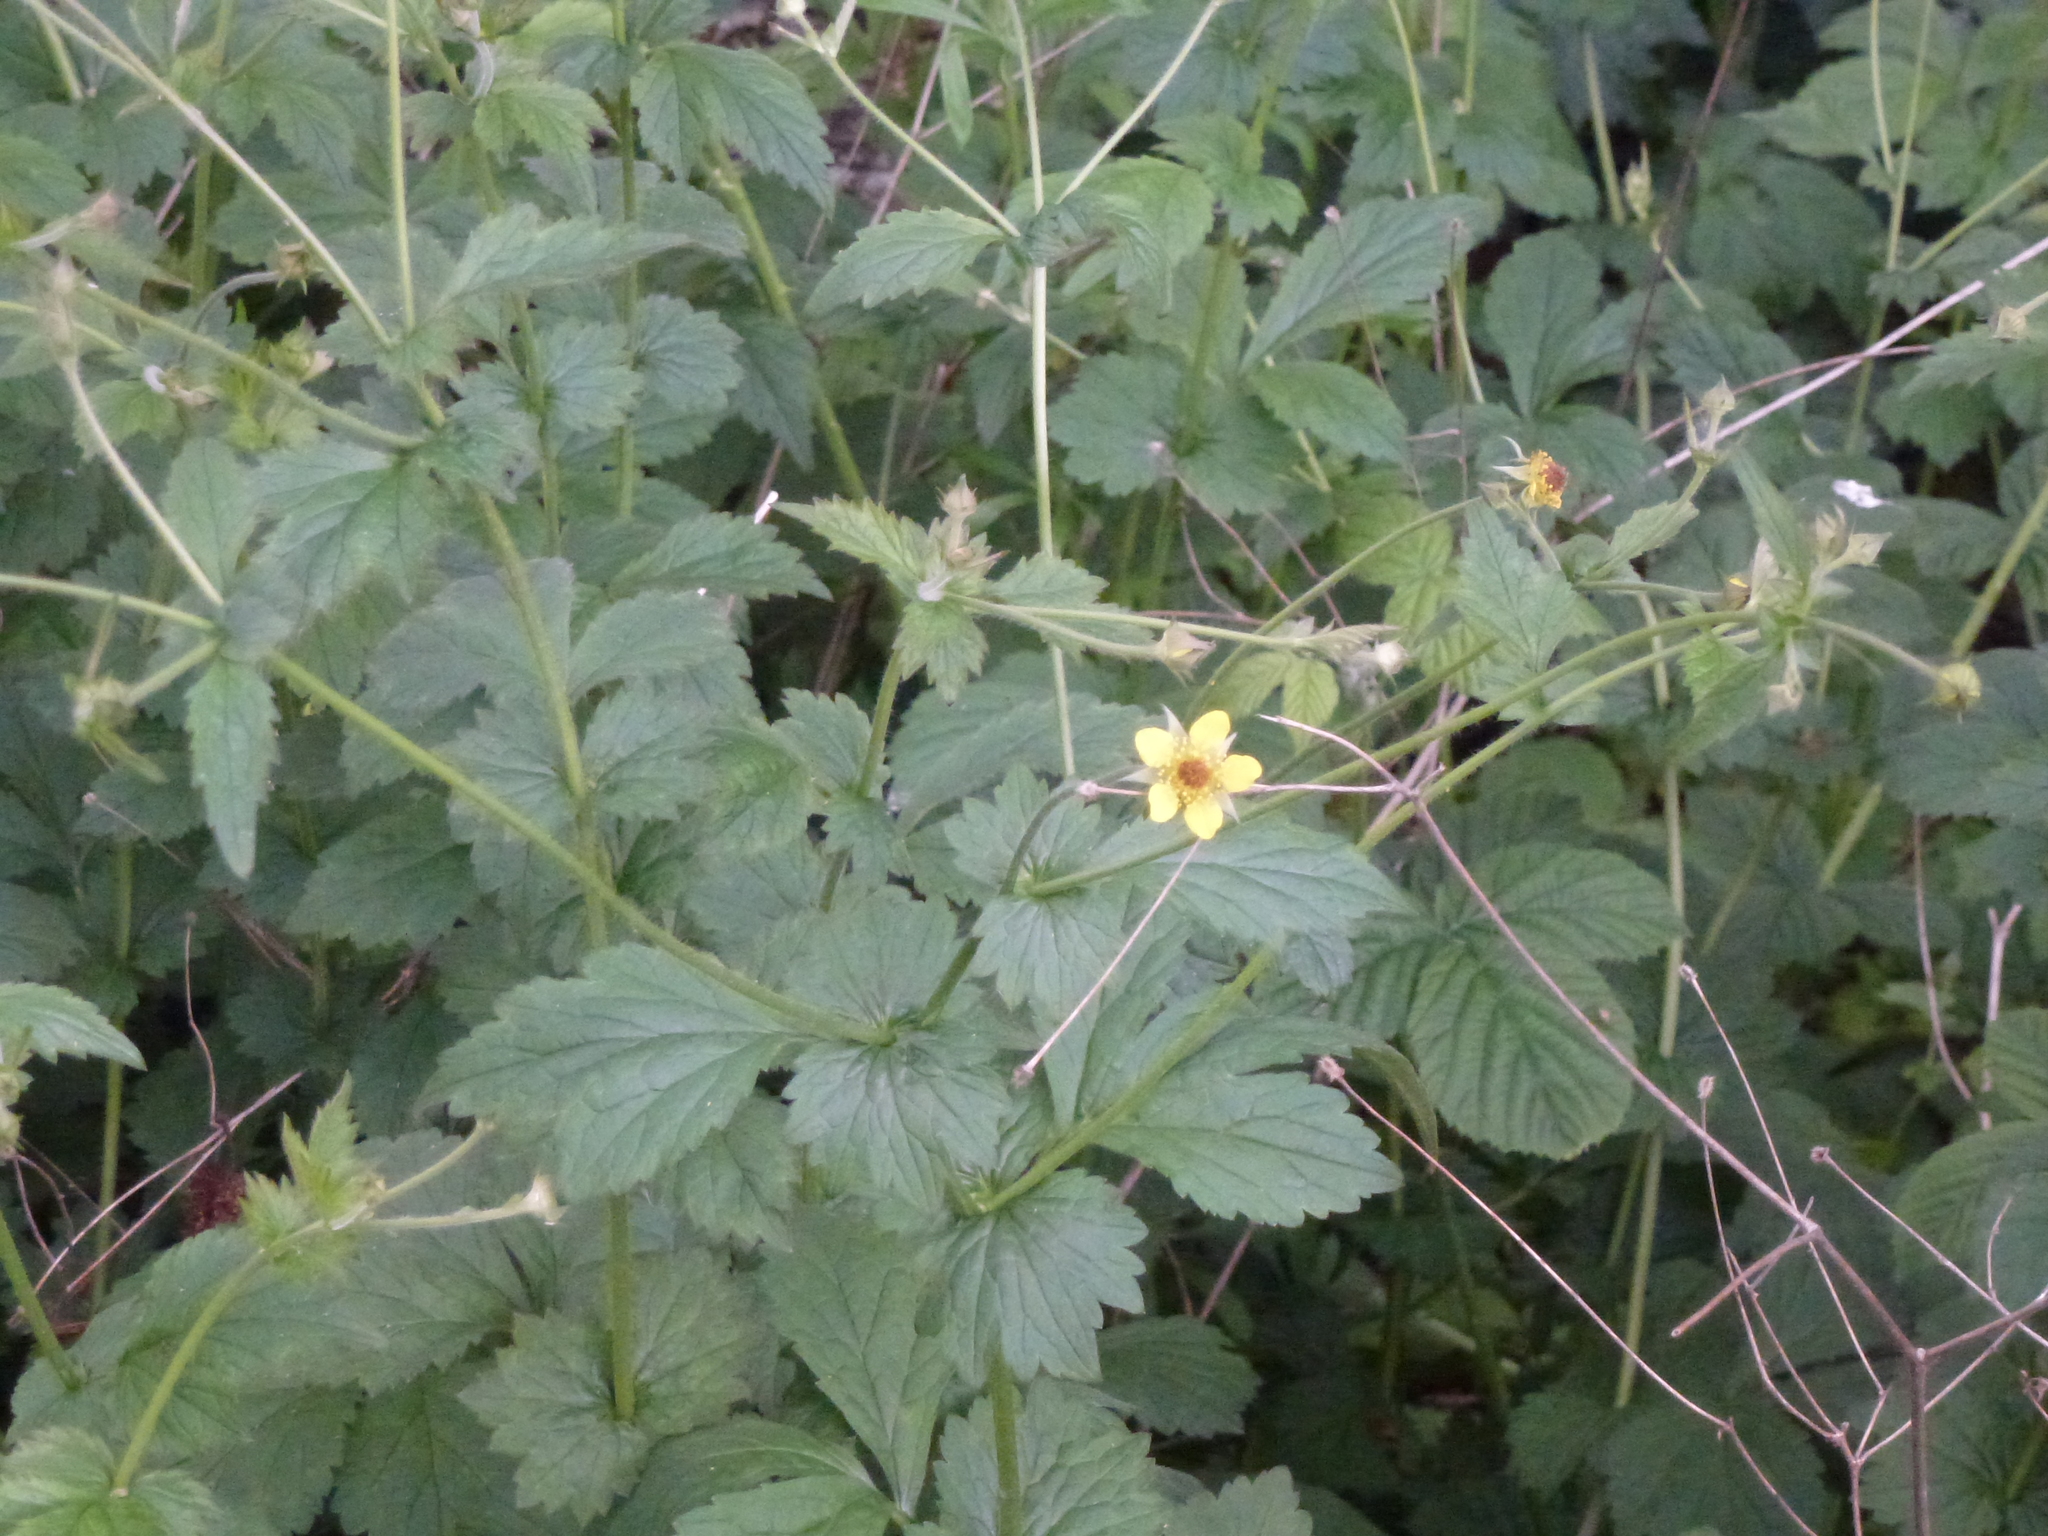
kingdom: Plantae
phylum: Tracheophyta
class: Magnoliopsida
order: Rosales
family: Rosaceae
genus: Geum
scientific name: Geum urbanum
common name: Wood avens
